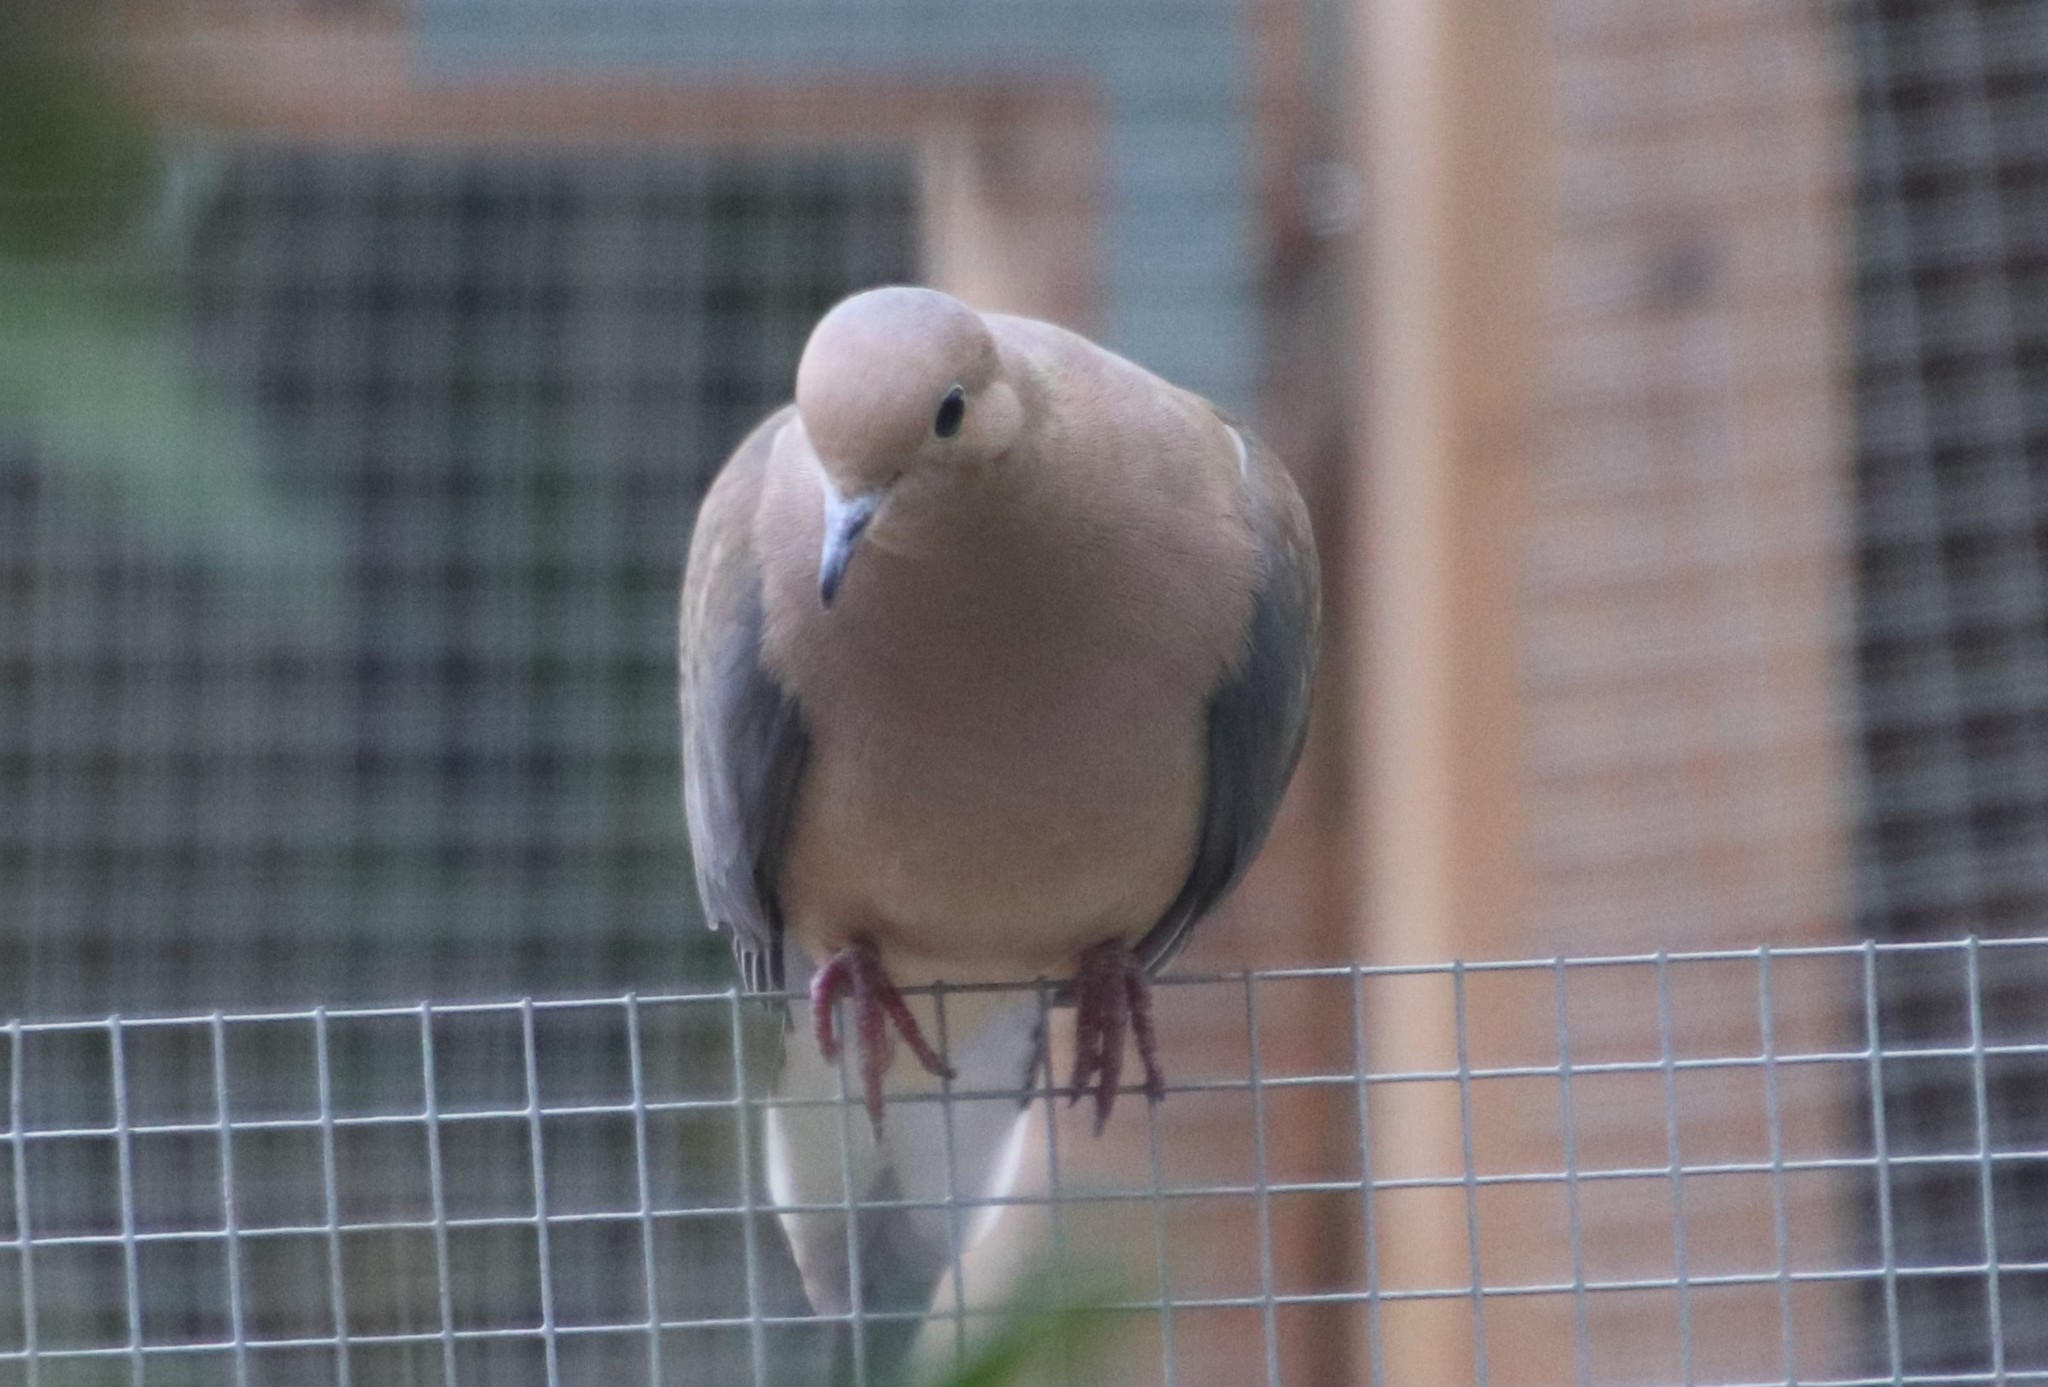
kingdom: Animalia
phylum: Chordata
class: Aves
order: Columbiformes
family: Columbidae
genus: Zenaida
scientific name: Zenaida macroura
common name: Mourning dove
